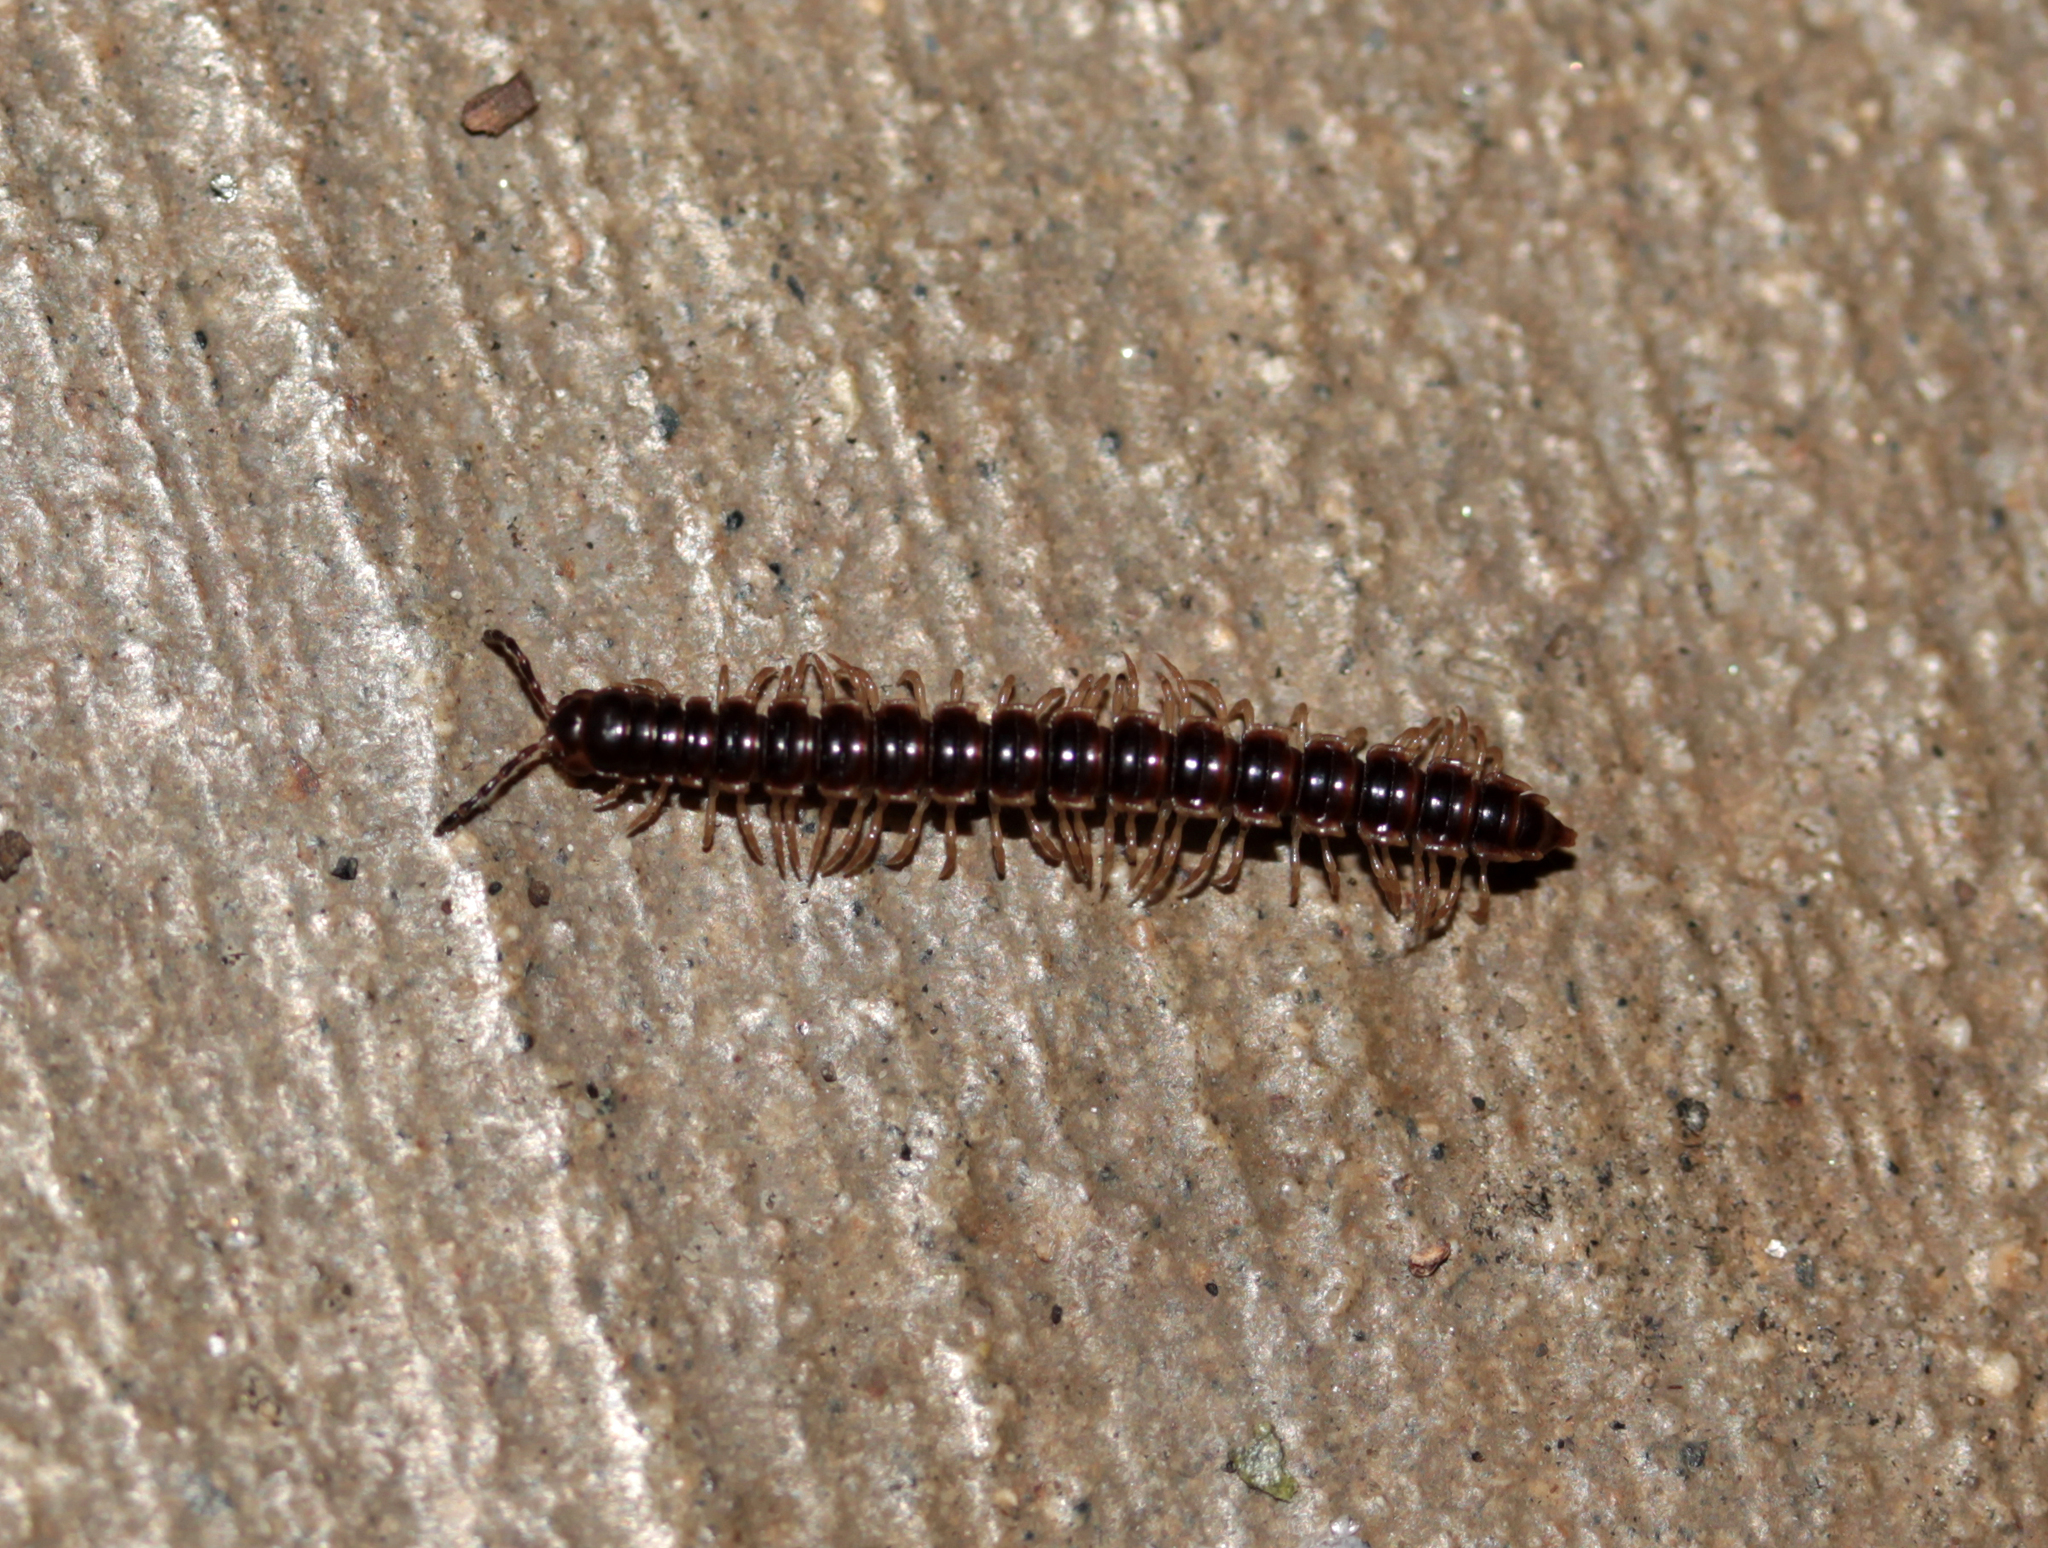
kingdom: Animalia
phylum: Arthropoda
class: Diplopoda
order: Polydesmida
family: Paradoxosomatidae
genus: Oxidus
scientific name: Oxidus gracilis
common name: Greenhouse millipede
